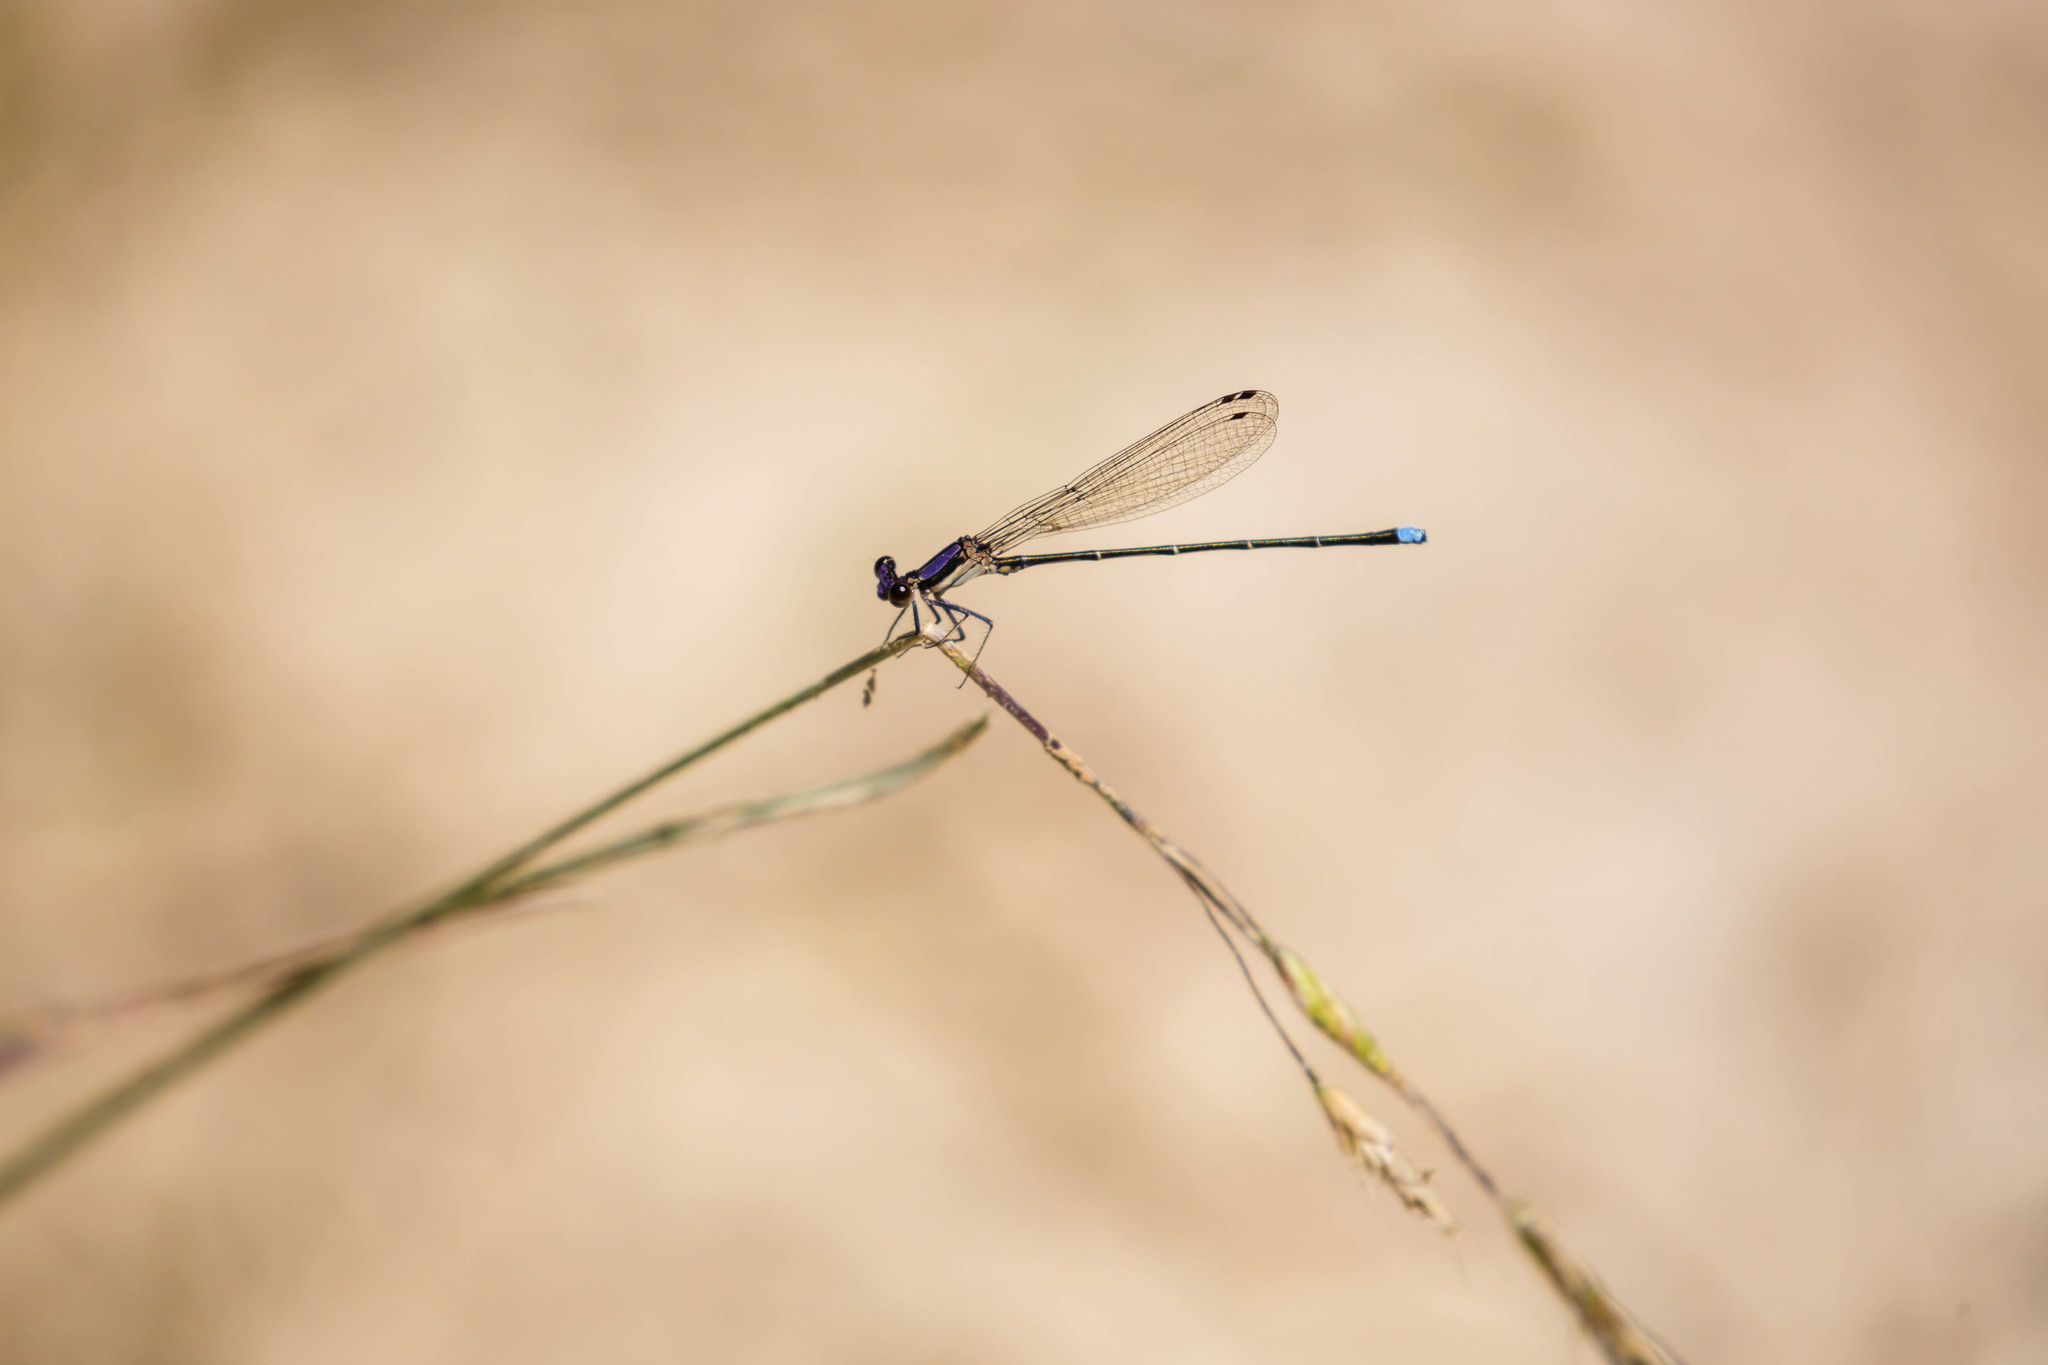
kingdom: Animalia
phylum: Arthropoda
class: Insecta
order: Odonata
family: Coenagrionidae
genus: Argia
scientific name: Argia tibialis
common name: Blue-tipped dancer
